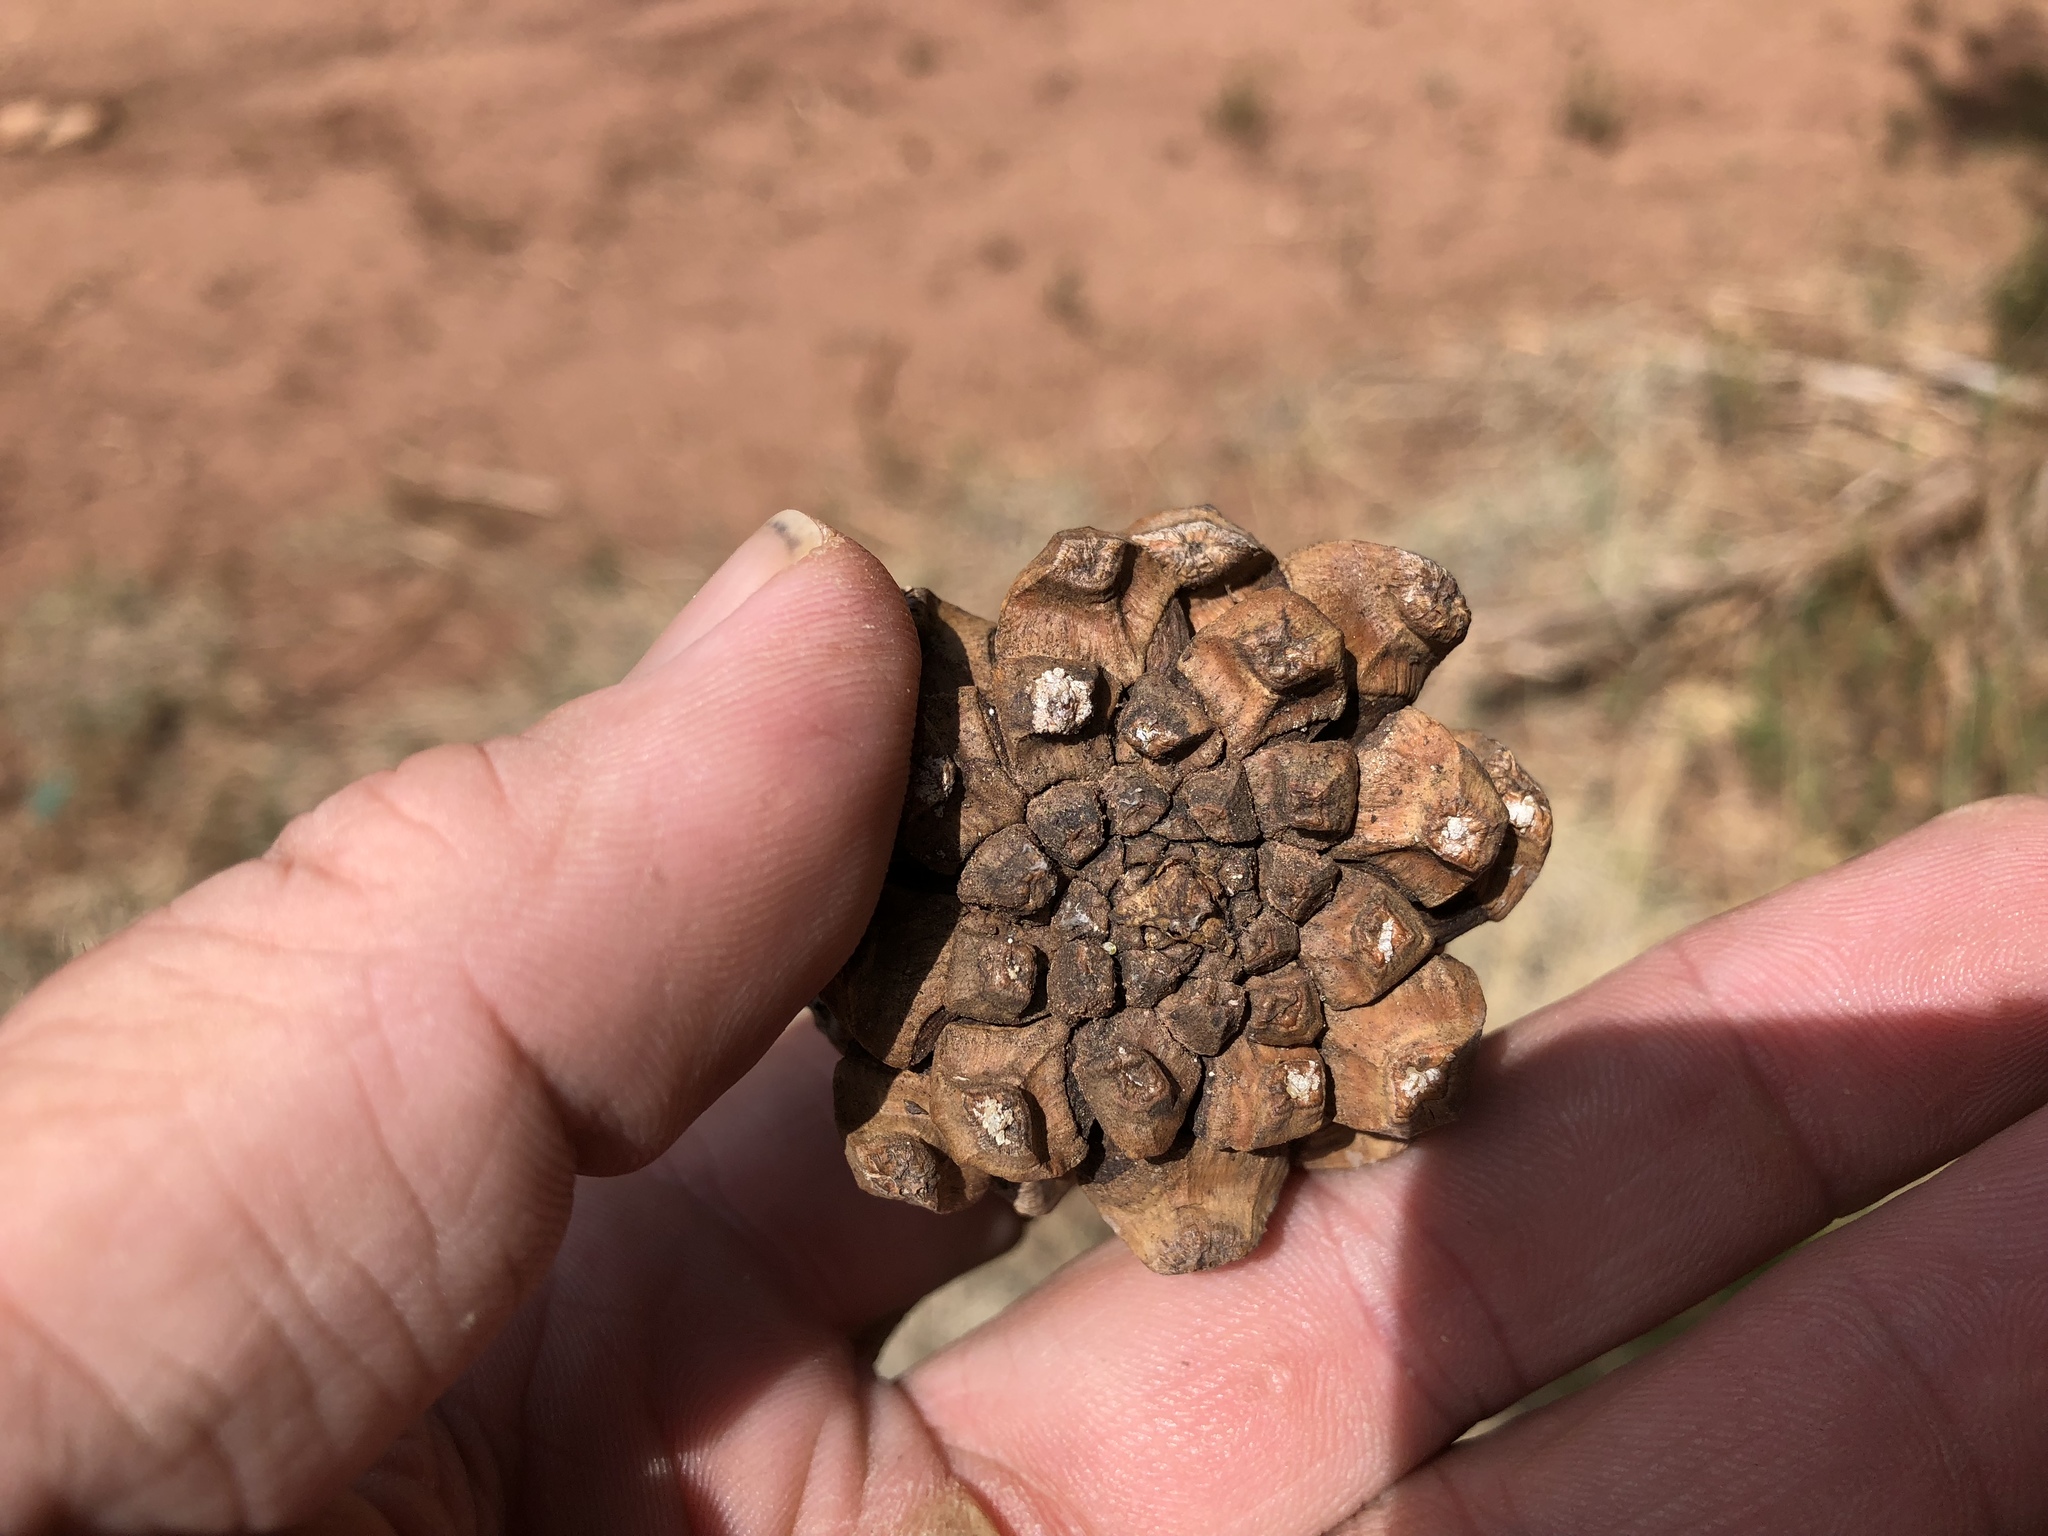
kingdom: Plantae
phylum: Tracheophyta
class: Pinopsida
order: Pinales
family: Pinaceae
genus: Pinus
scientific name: Pinus edulis
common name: Colorado pinyon
